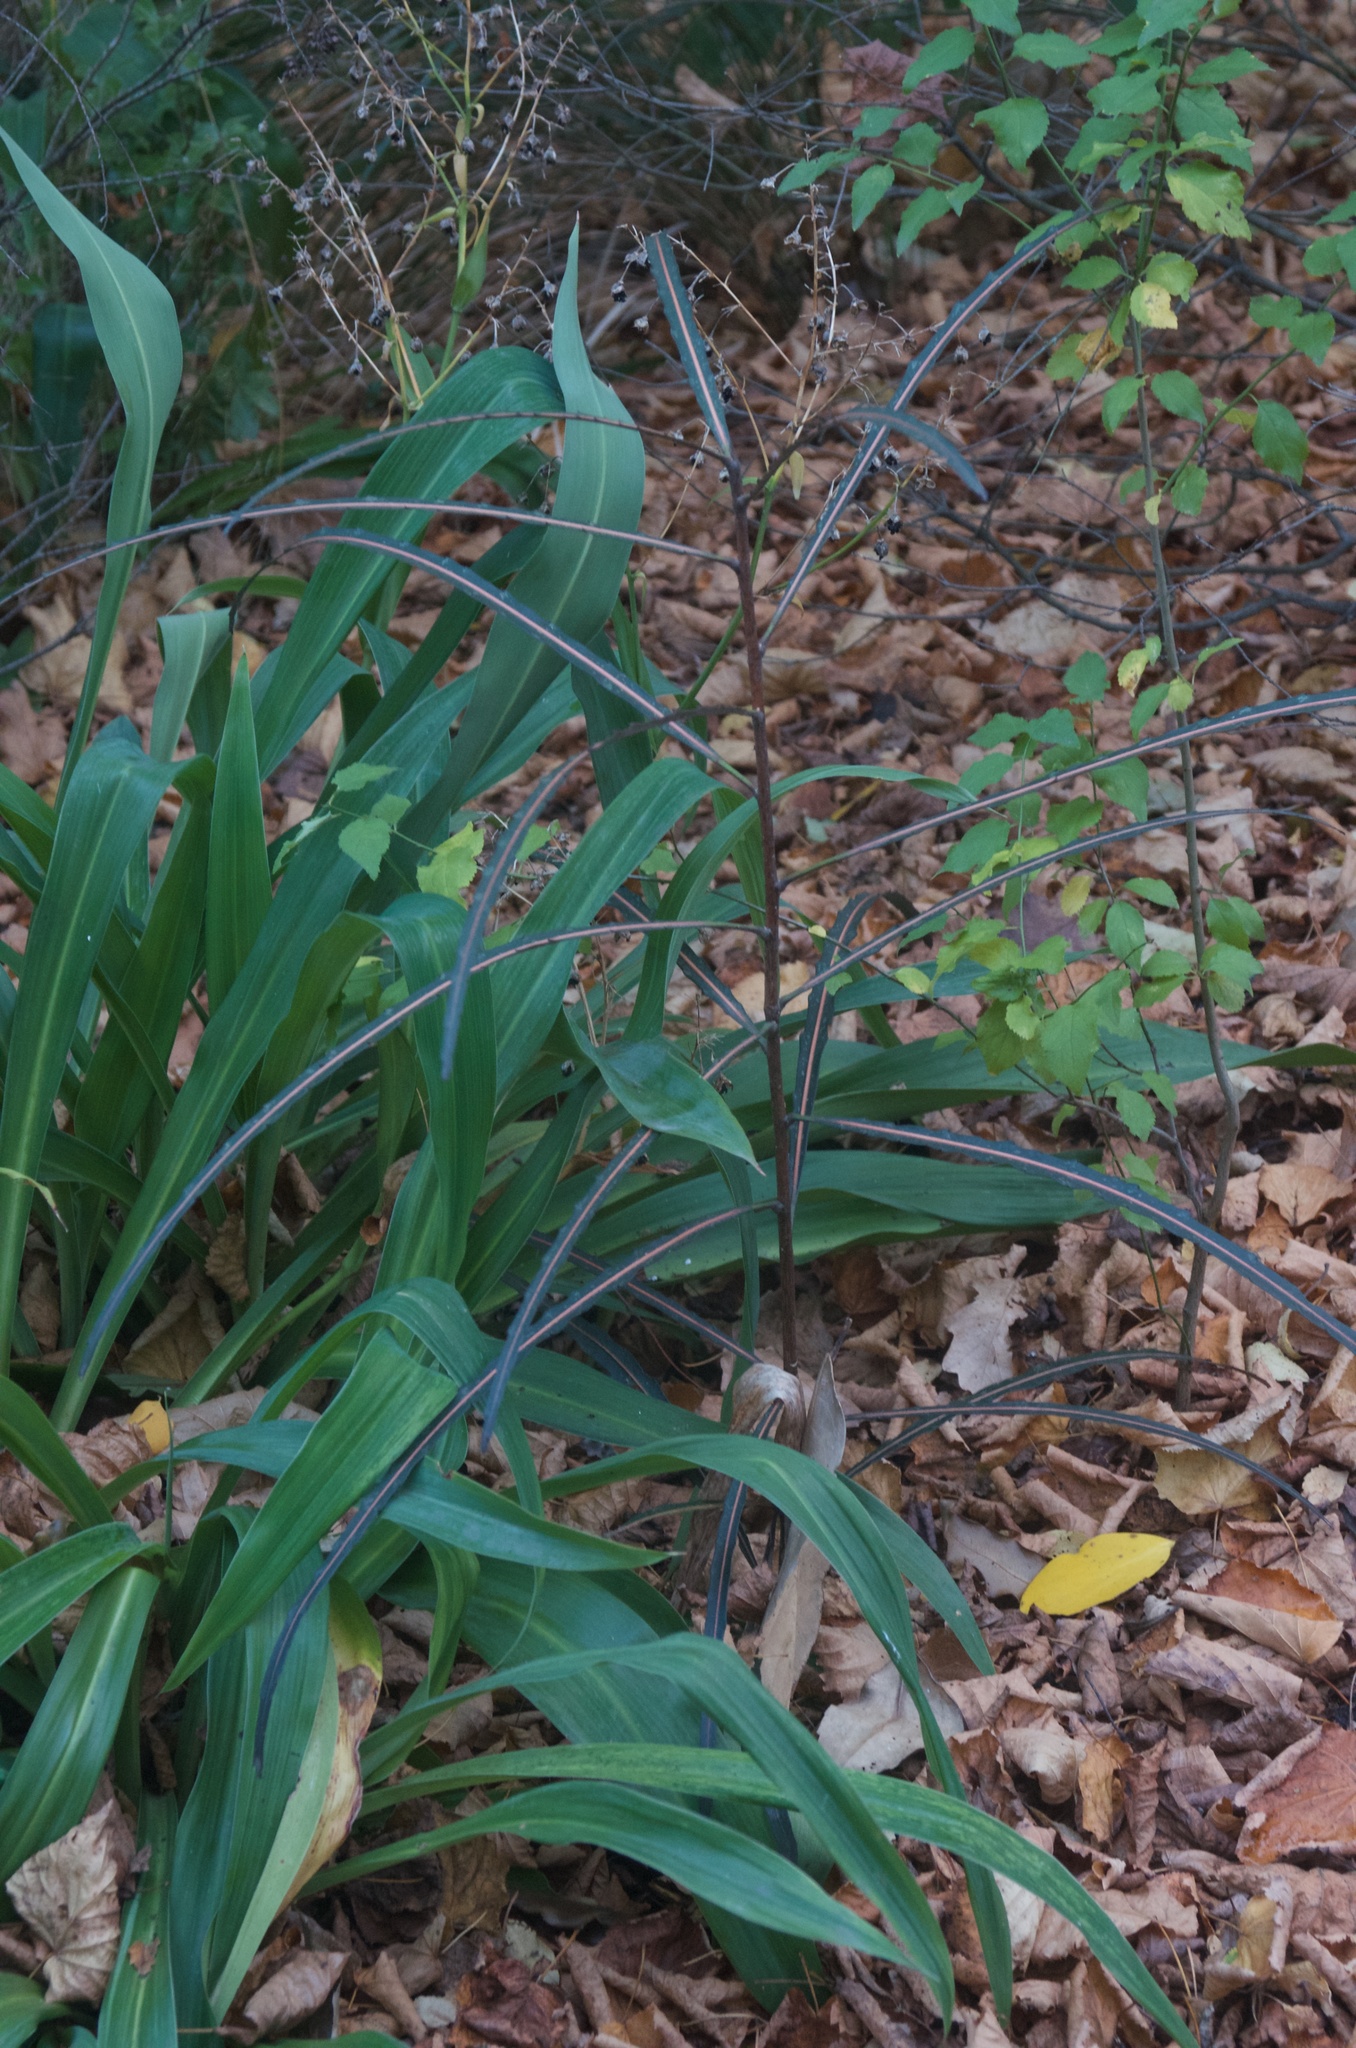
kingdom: Plantae
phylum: Tracheophyta
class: Magnoliopsida
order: Apiales
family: Araliaceae
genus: Pseudopanax
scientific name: Pseudopanax crassifolius
